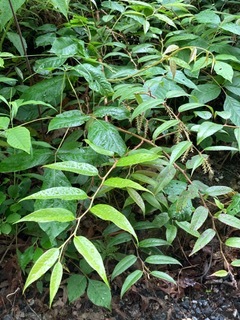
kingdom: Plantae
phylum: Tracheophyta
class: Magnoliopsida
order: Ericales
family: Ericaceae
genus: Leucothoe
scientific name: Leucothoe fontanesiana
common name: Fetterbush
